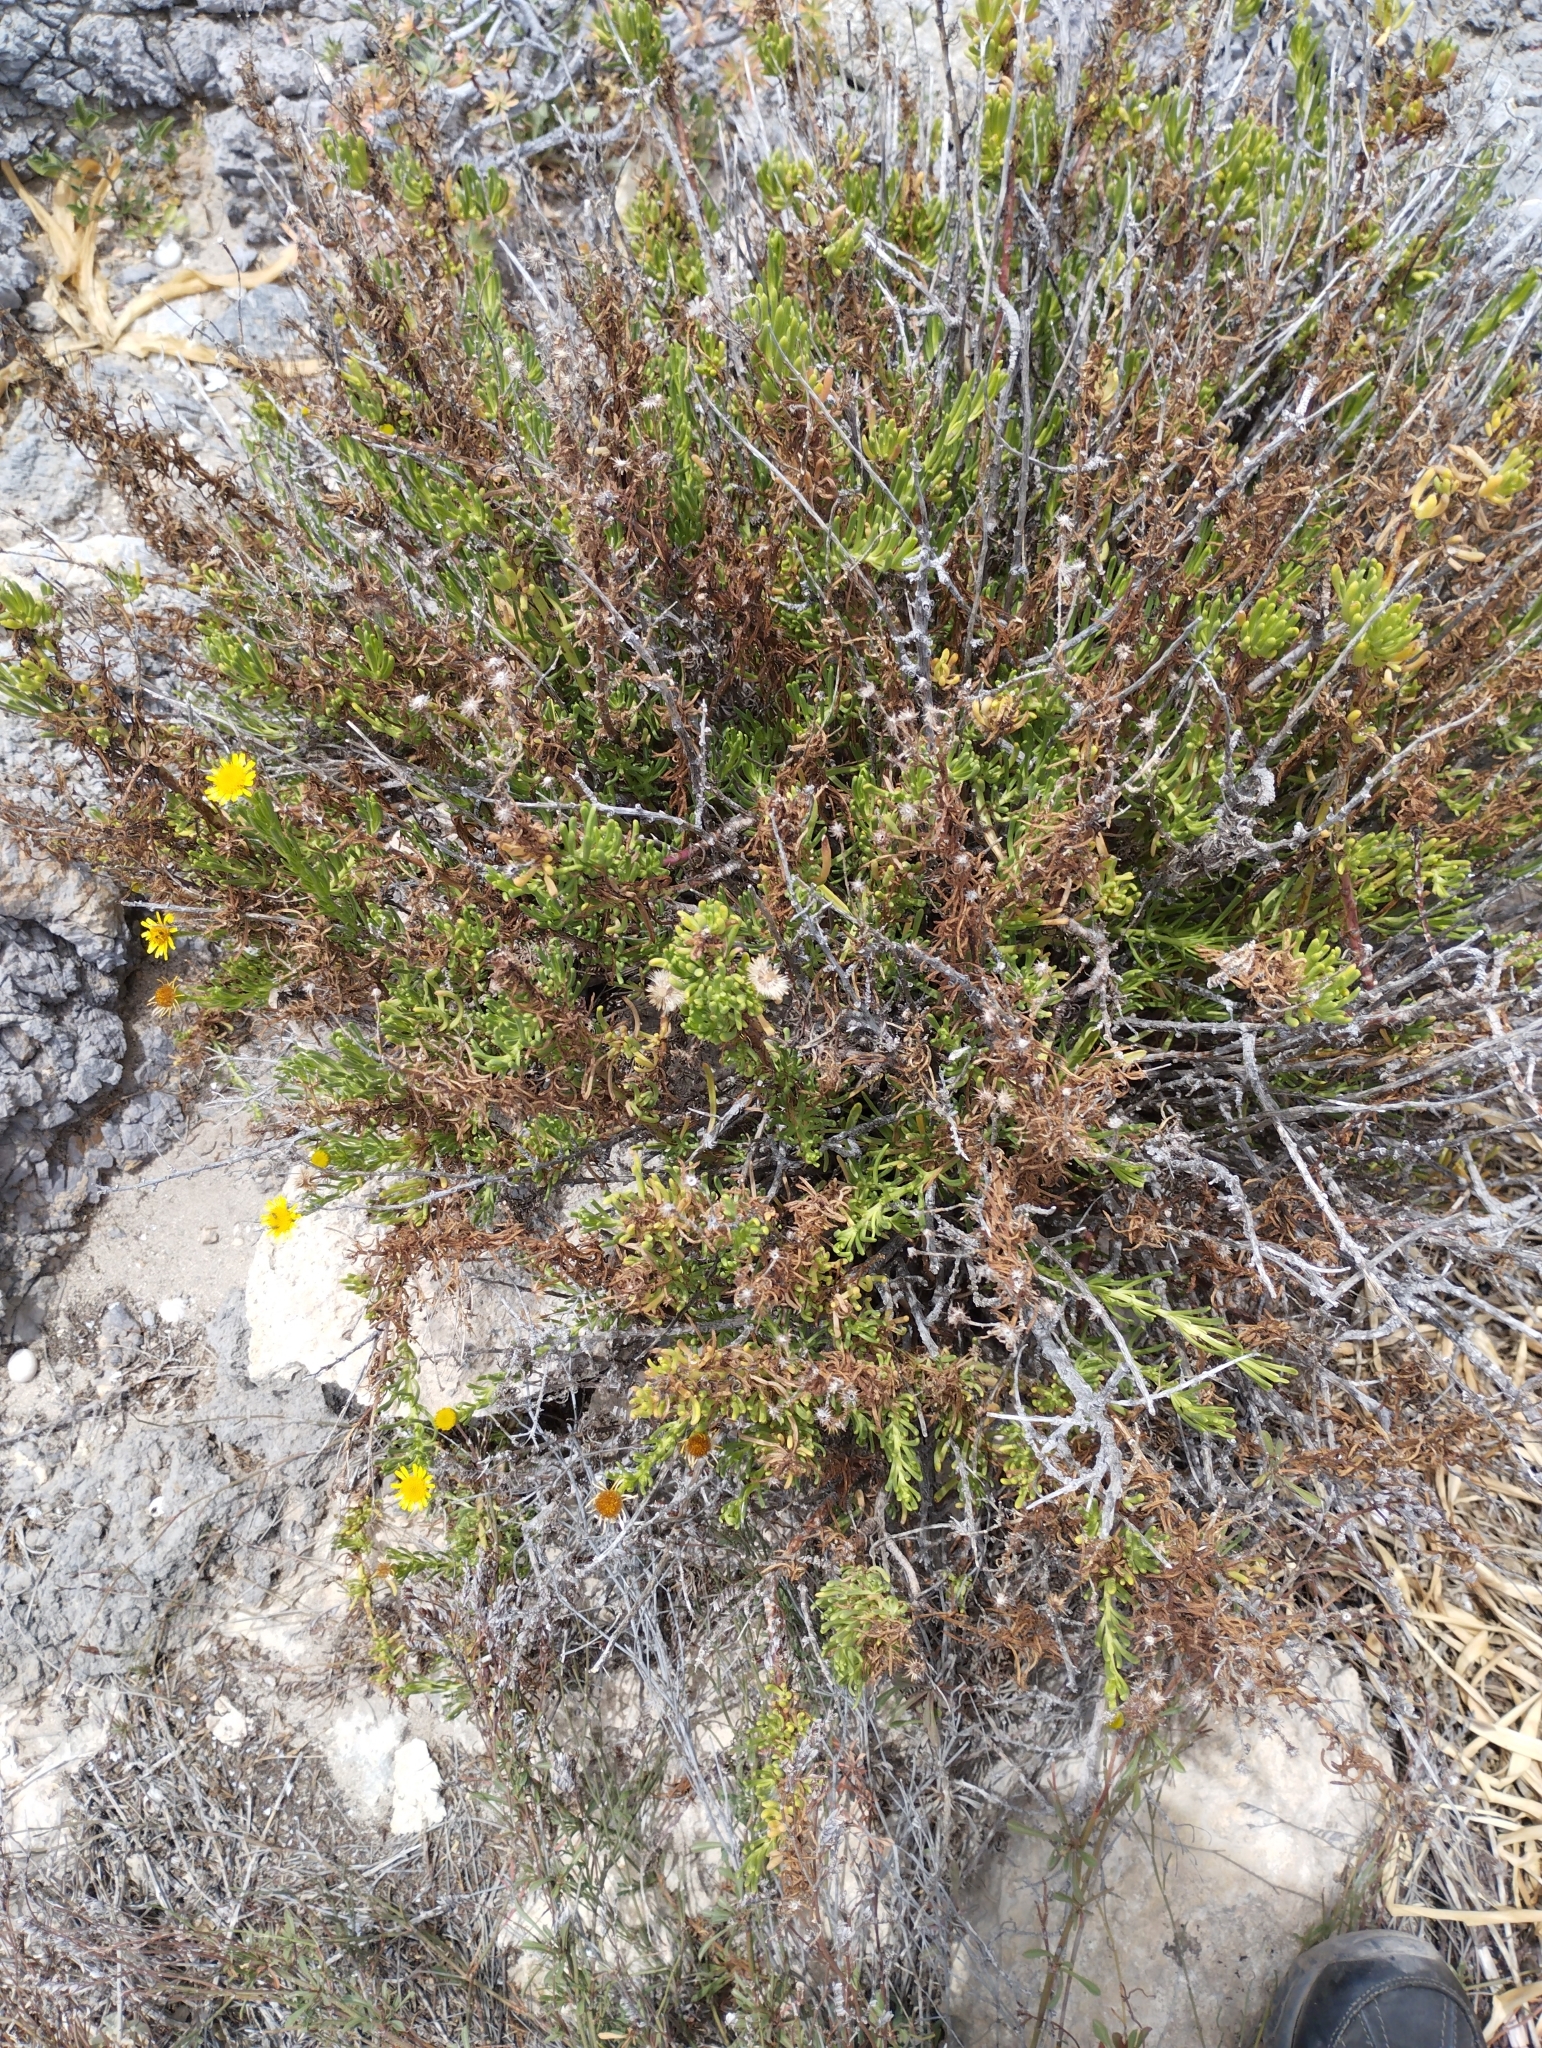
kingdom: Plantae
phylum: Tracheophyta
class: Magnoliopsida
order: Asterales
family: Asteraceae
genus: Limbarda
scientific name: Limbarda crithmoides
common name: Golden samphire
